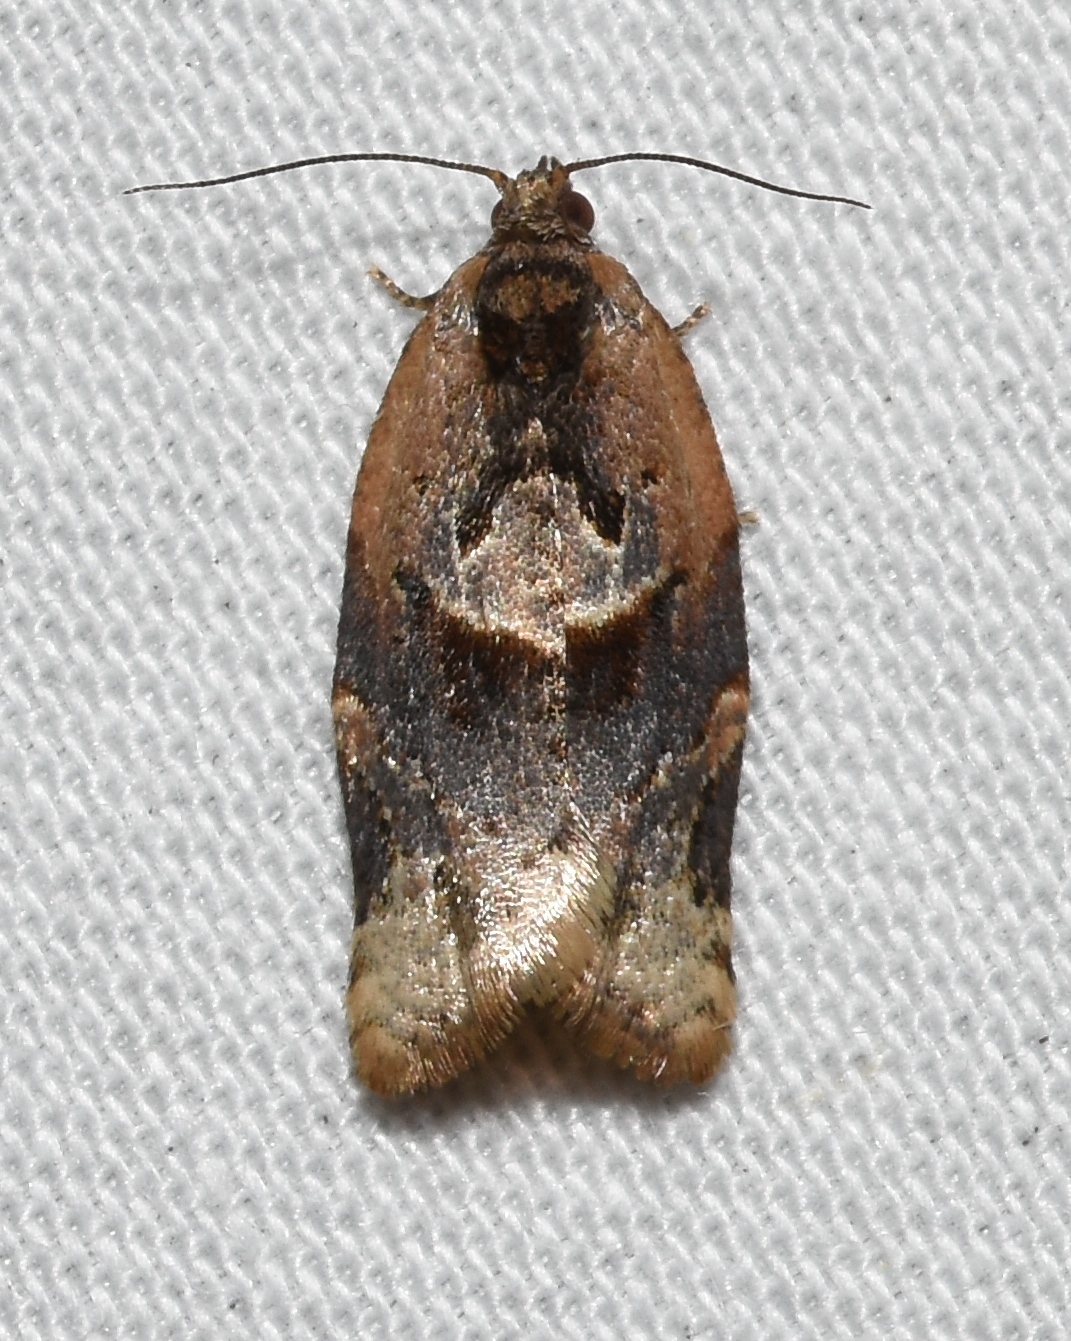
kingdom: Animalia
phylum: Arthropoda
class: Insecta
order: Lepidoptera
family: Tortricidae
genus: Argyrotaenia
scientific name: Argyrotaenia velutinana
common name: Red-banded leafroller moth
